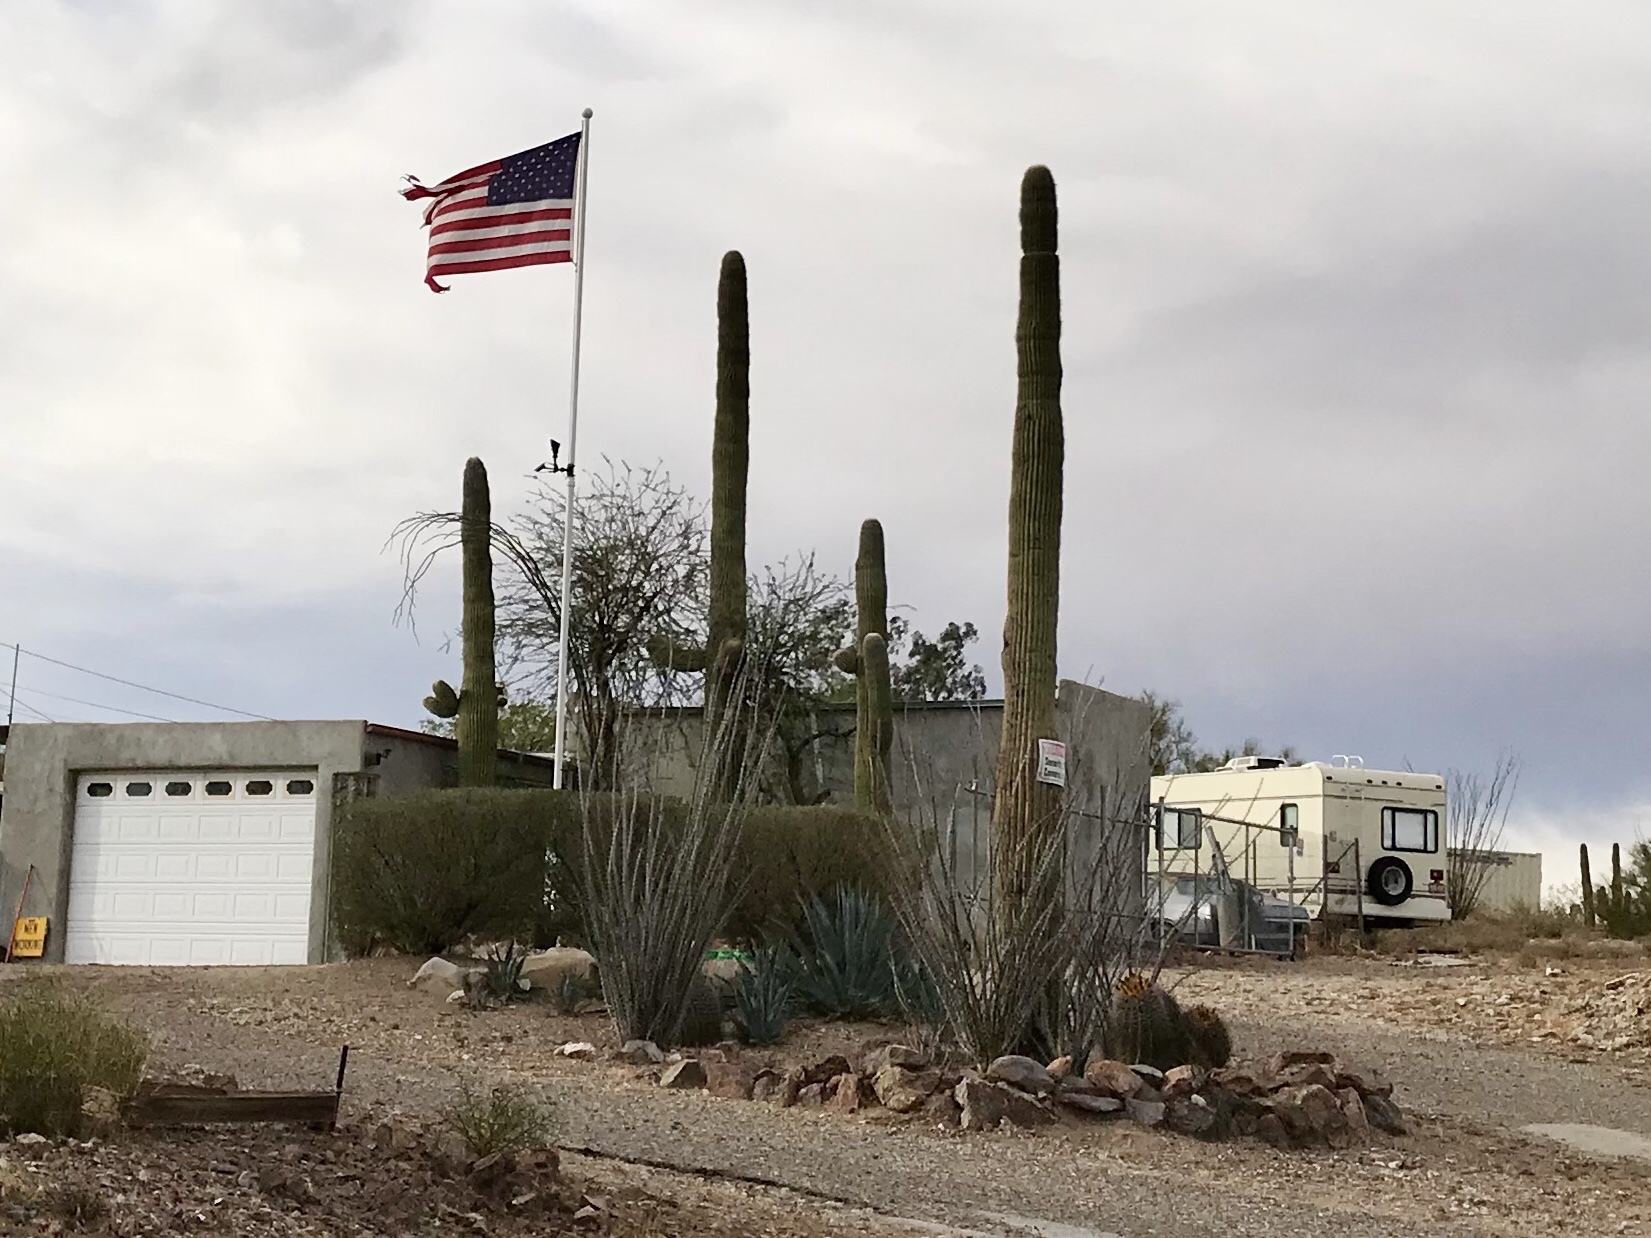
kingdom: Plantae
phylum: Tracheophyta
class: Magnoliopsida
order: Caryophyllales
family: Cactaceae
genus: Carnegiea
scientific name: Carnegiea gigantea
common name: Saguaro
